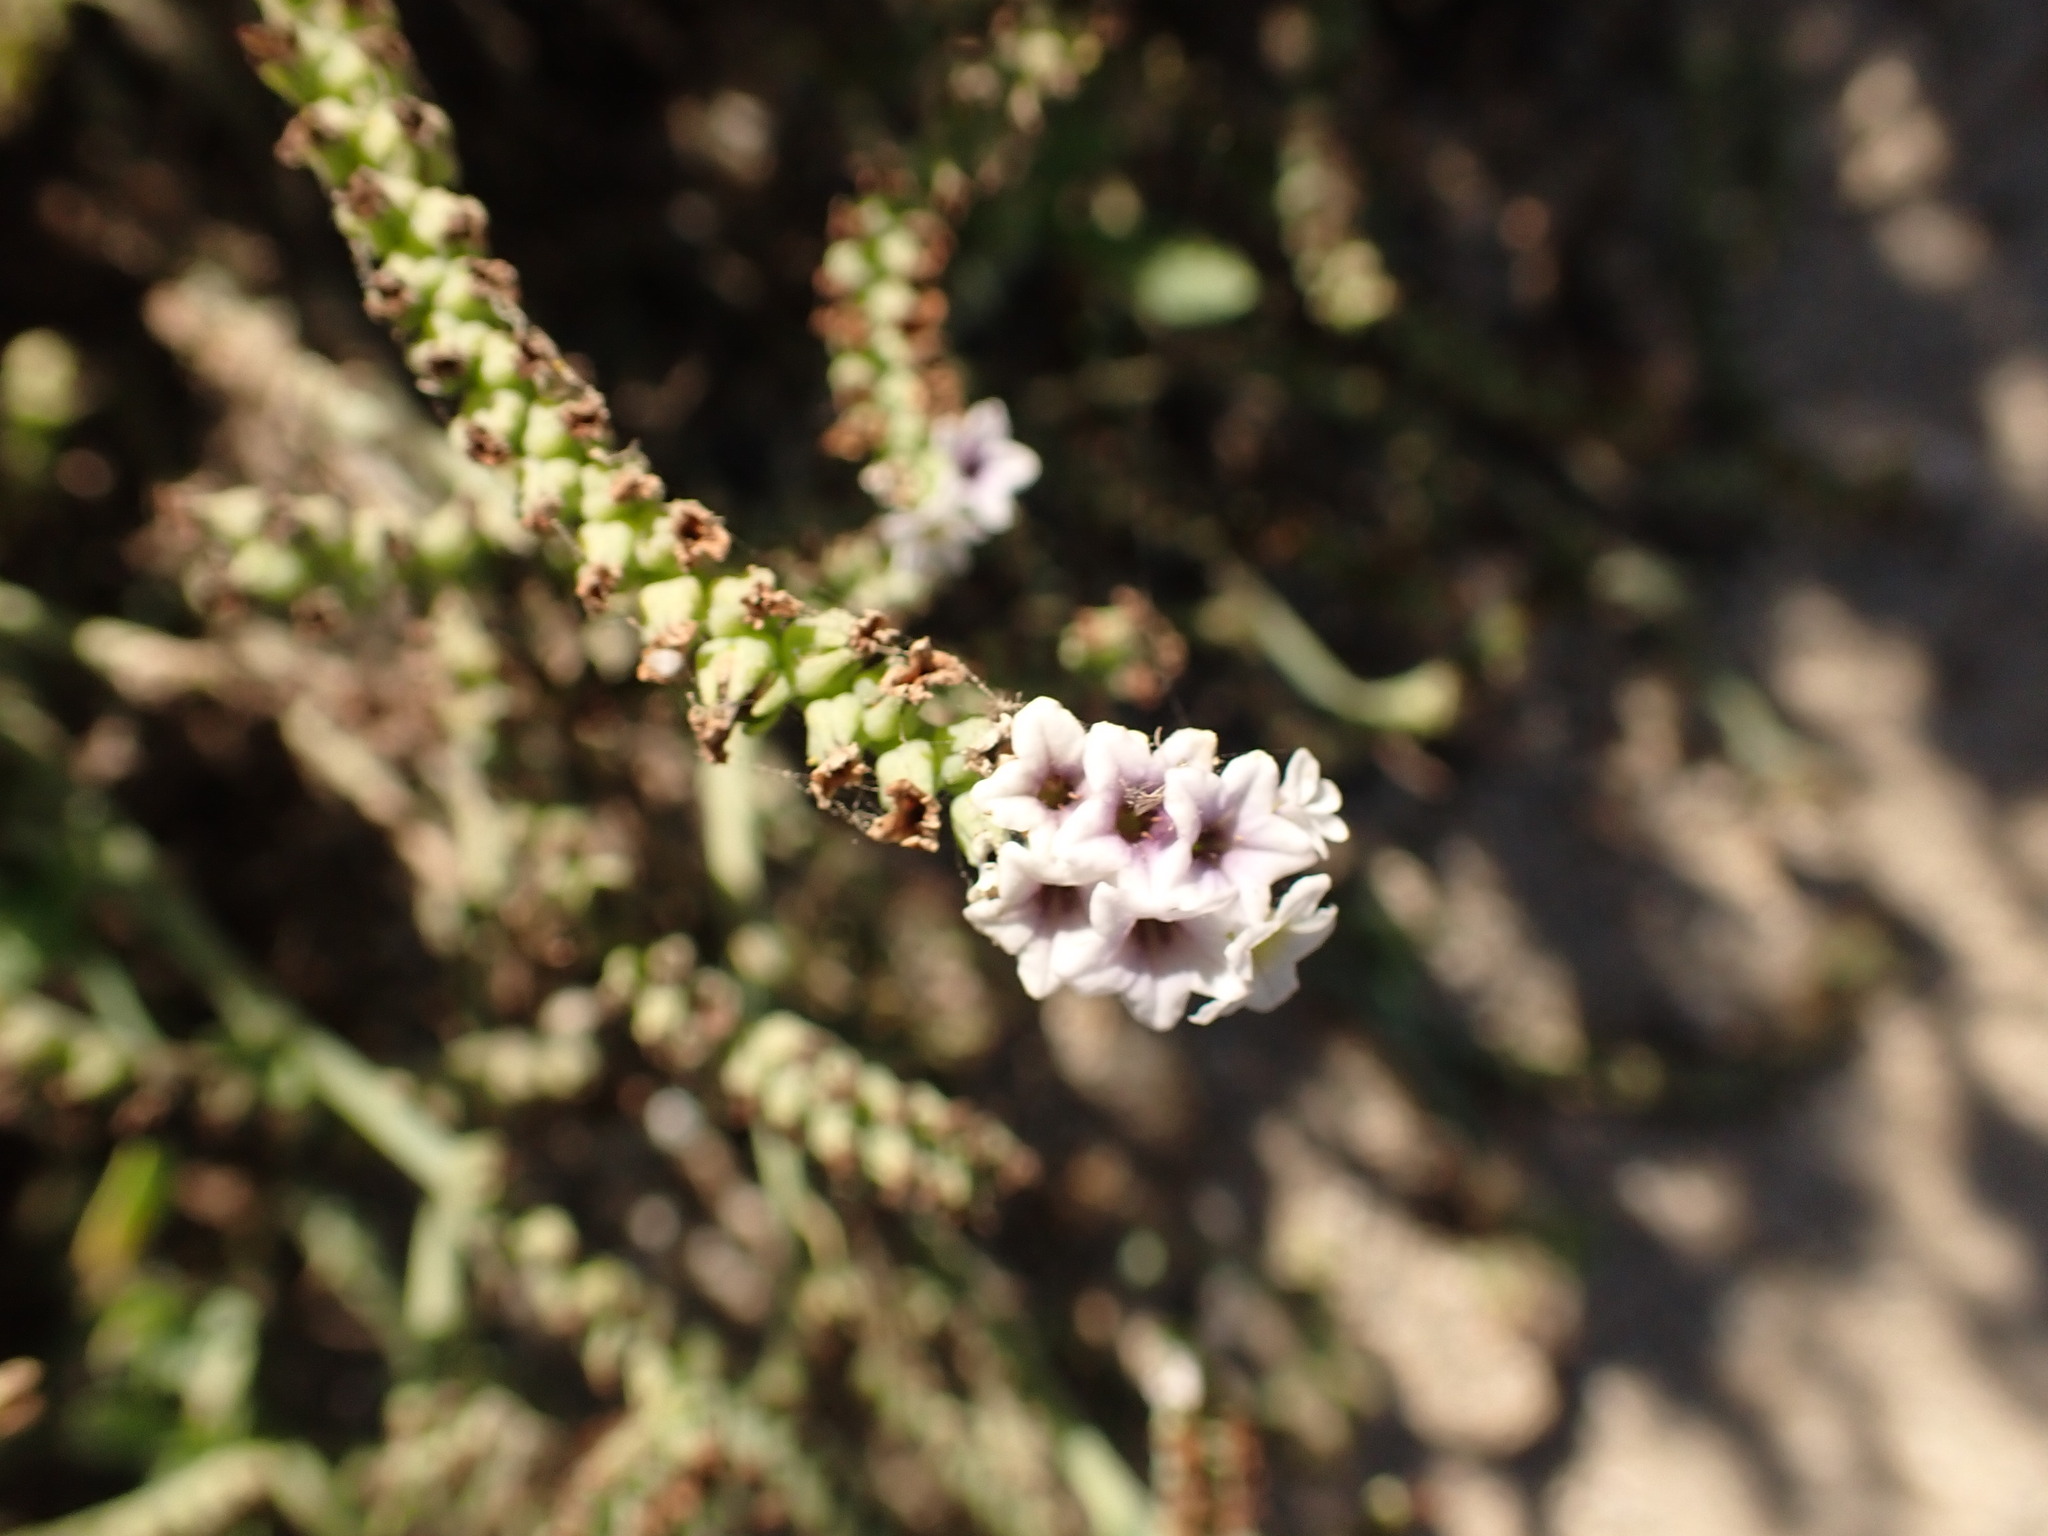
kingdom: Plantae
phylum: Tracheophyta
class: Magnoliopsida
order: Boraginales
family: Heliotropiaceae
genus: Heliotropium
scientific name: Heliotropium curassavicum
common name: Seaside heliotrope
